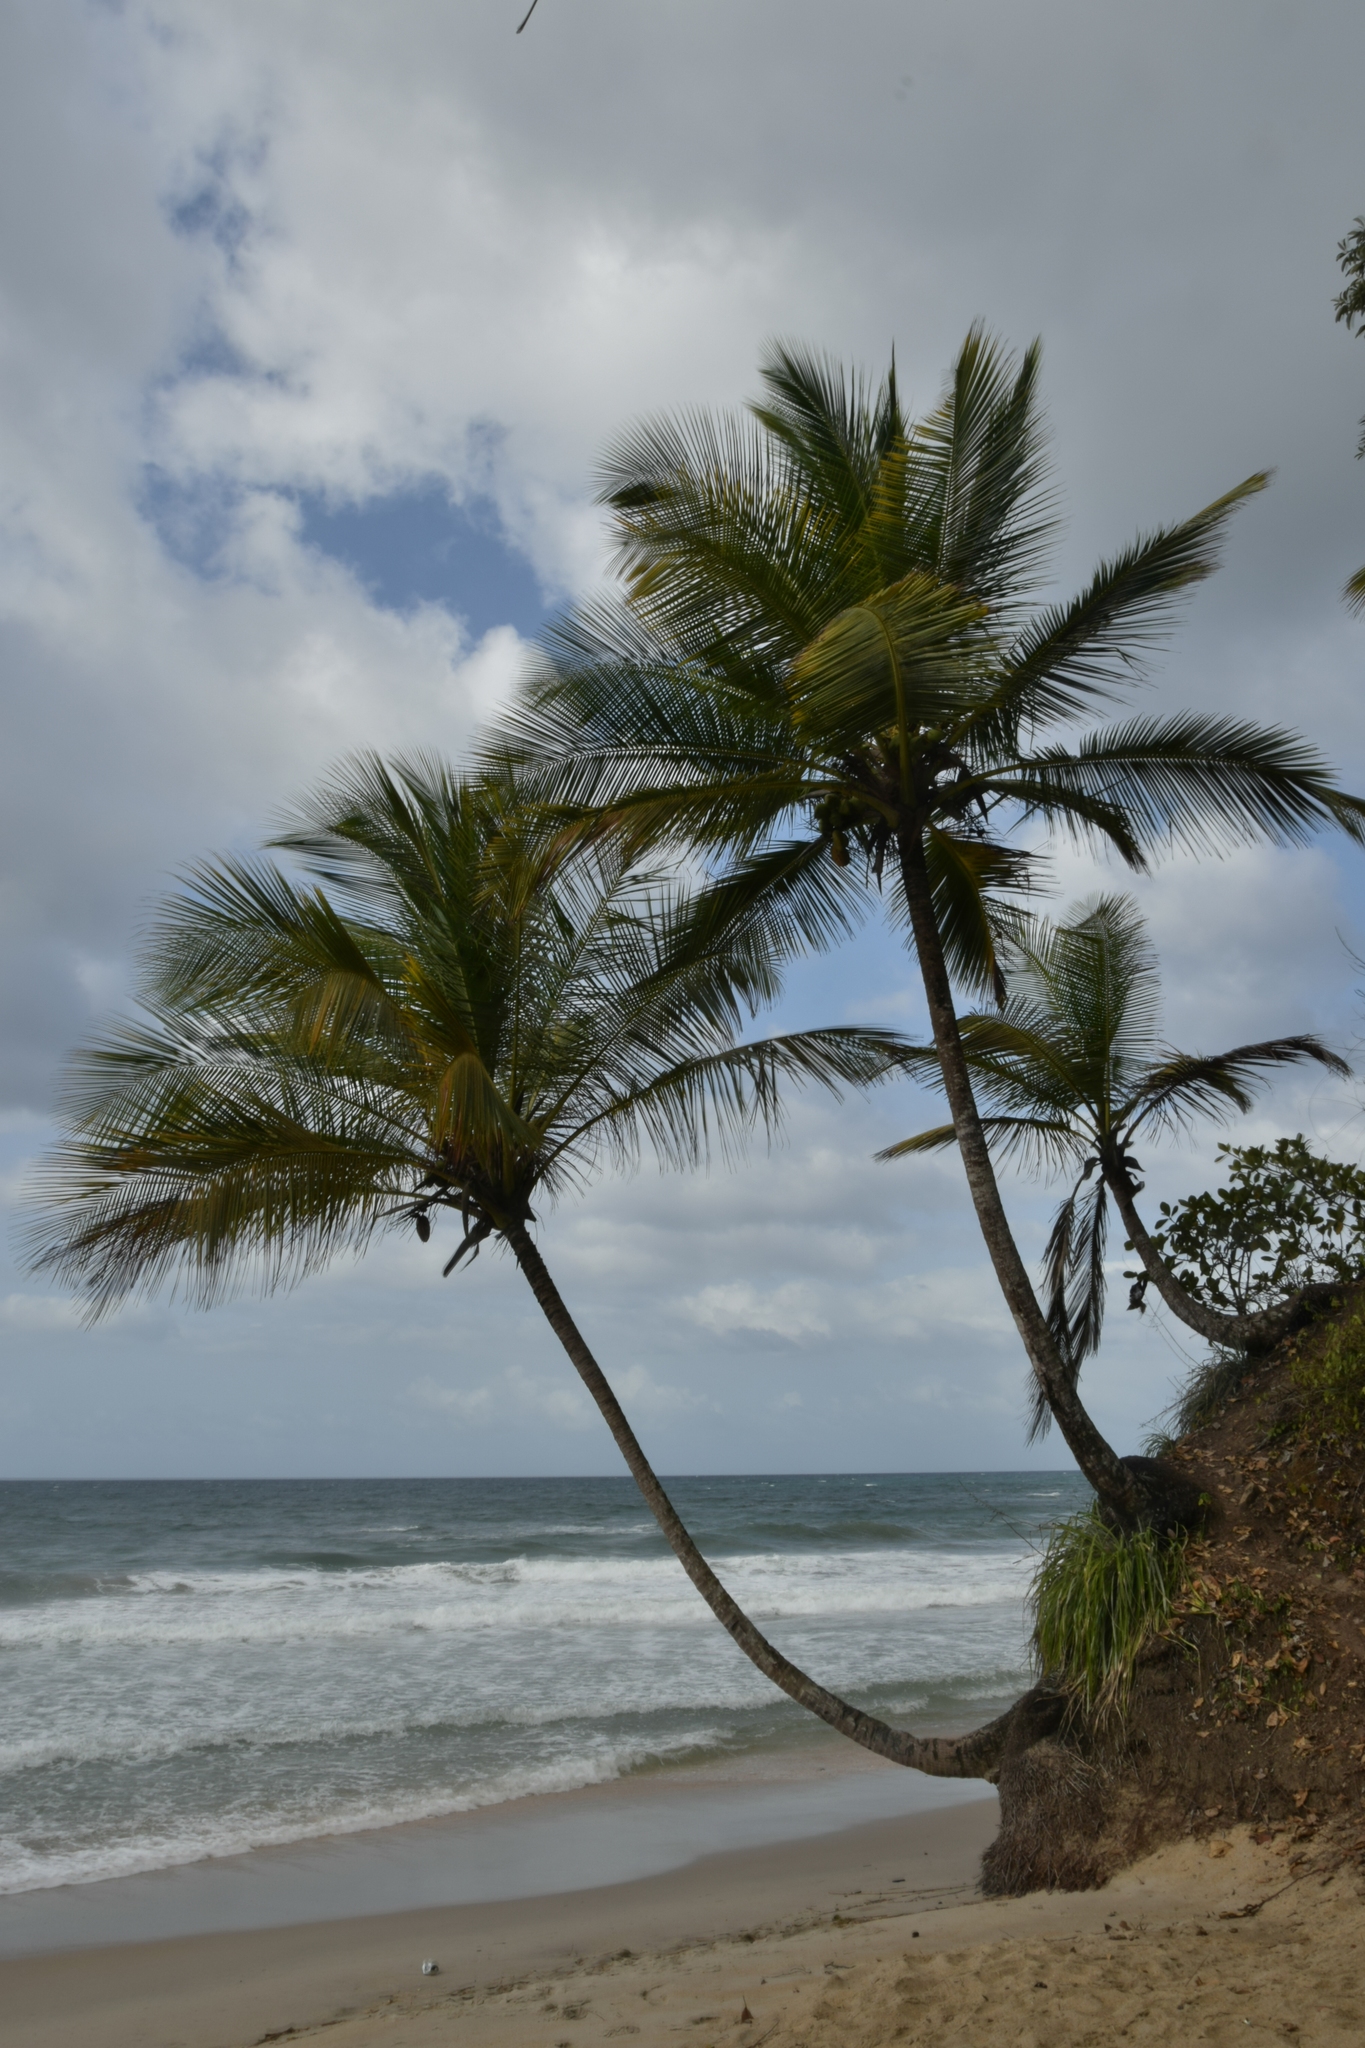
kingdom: Plantae
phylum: Tracheophyta
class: Liliopsida
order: Arecales
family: Arecaceae
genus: Cocos
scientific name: Cocos nucifera
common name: Coconut palm
